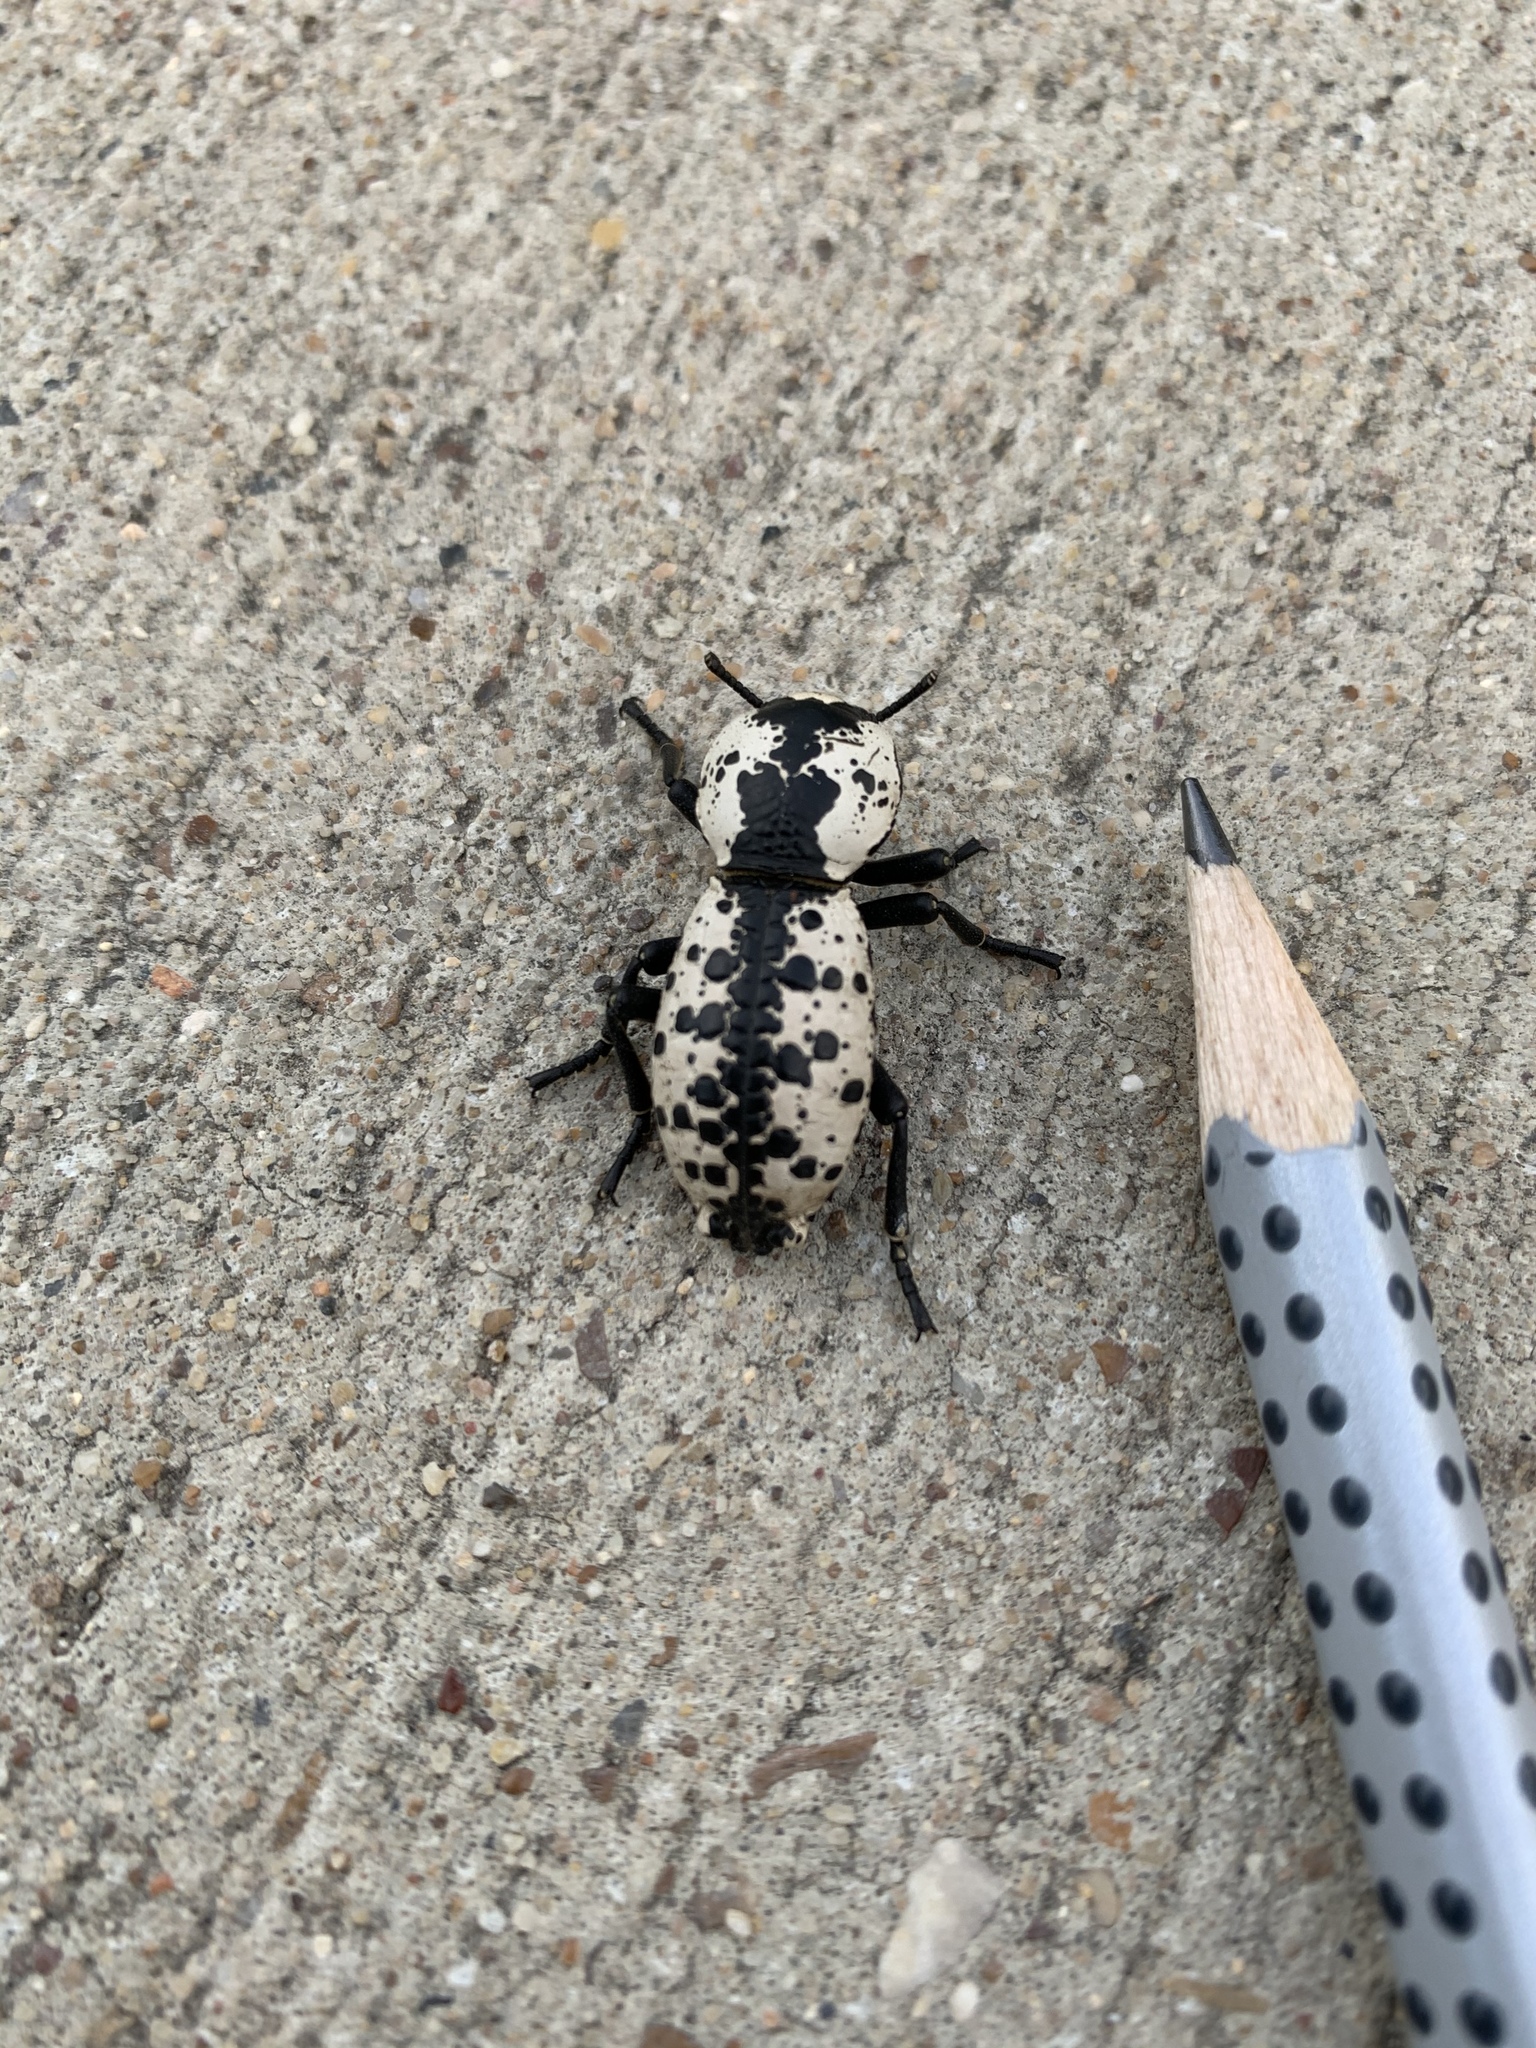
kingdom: Animalia
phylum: Arthropoda
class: Insecta
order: Coleoptera
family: Zopheridae
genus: Zopherus
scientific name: Zopherus nodulosus
